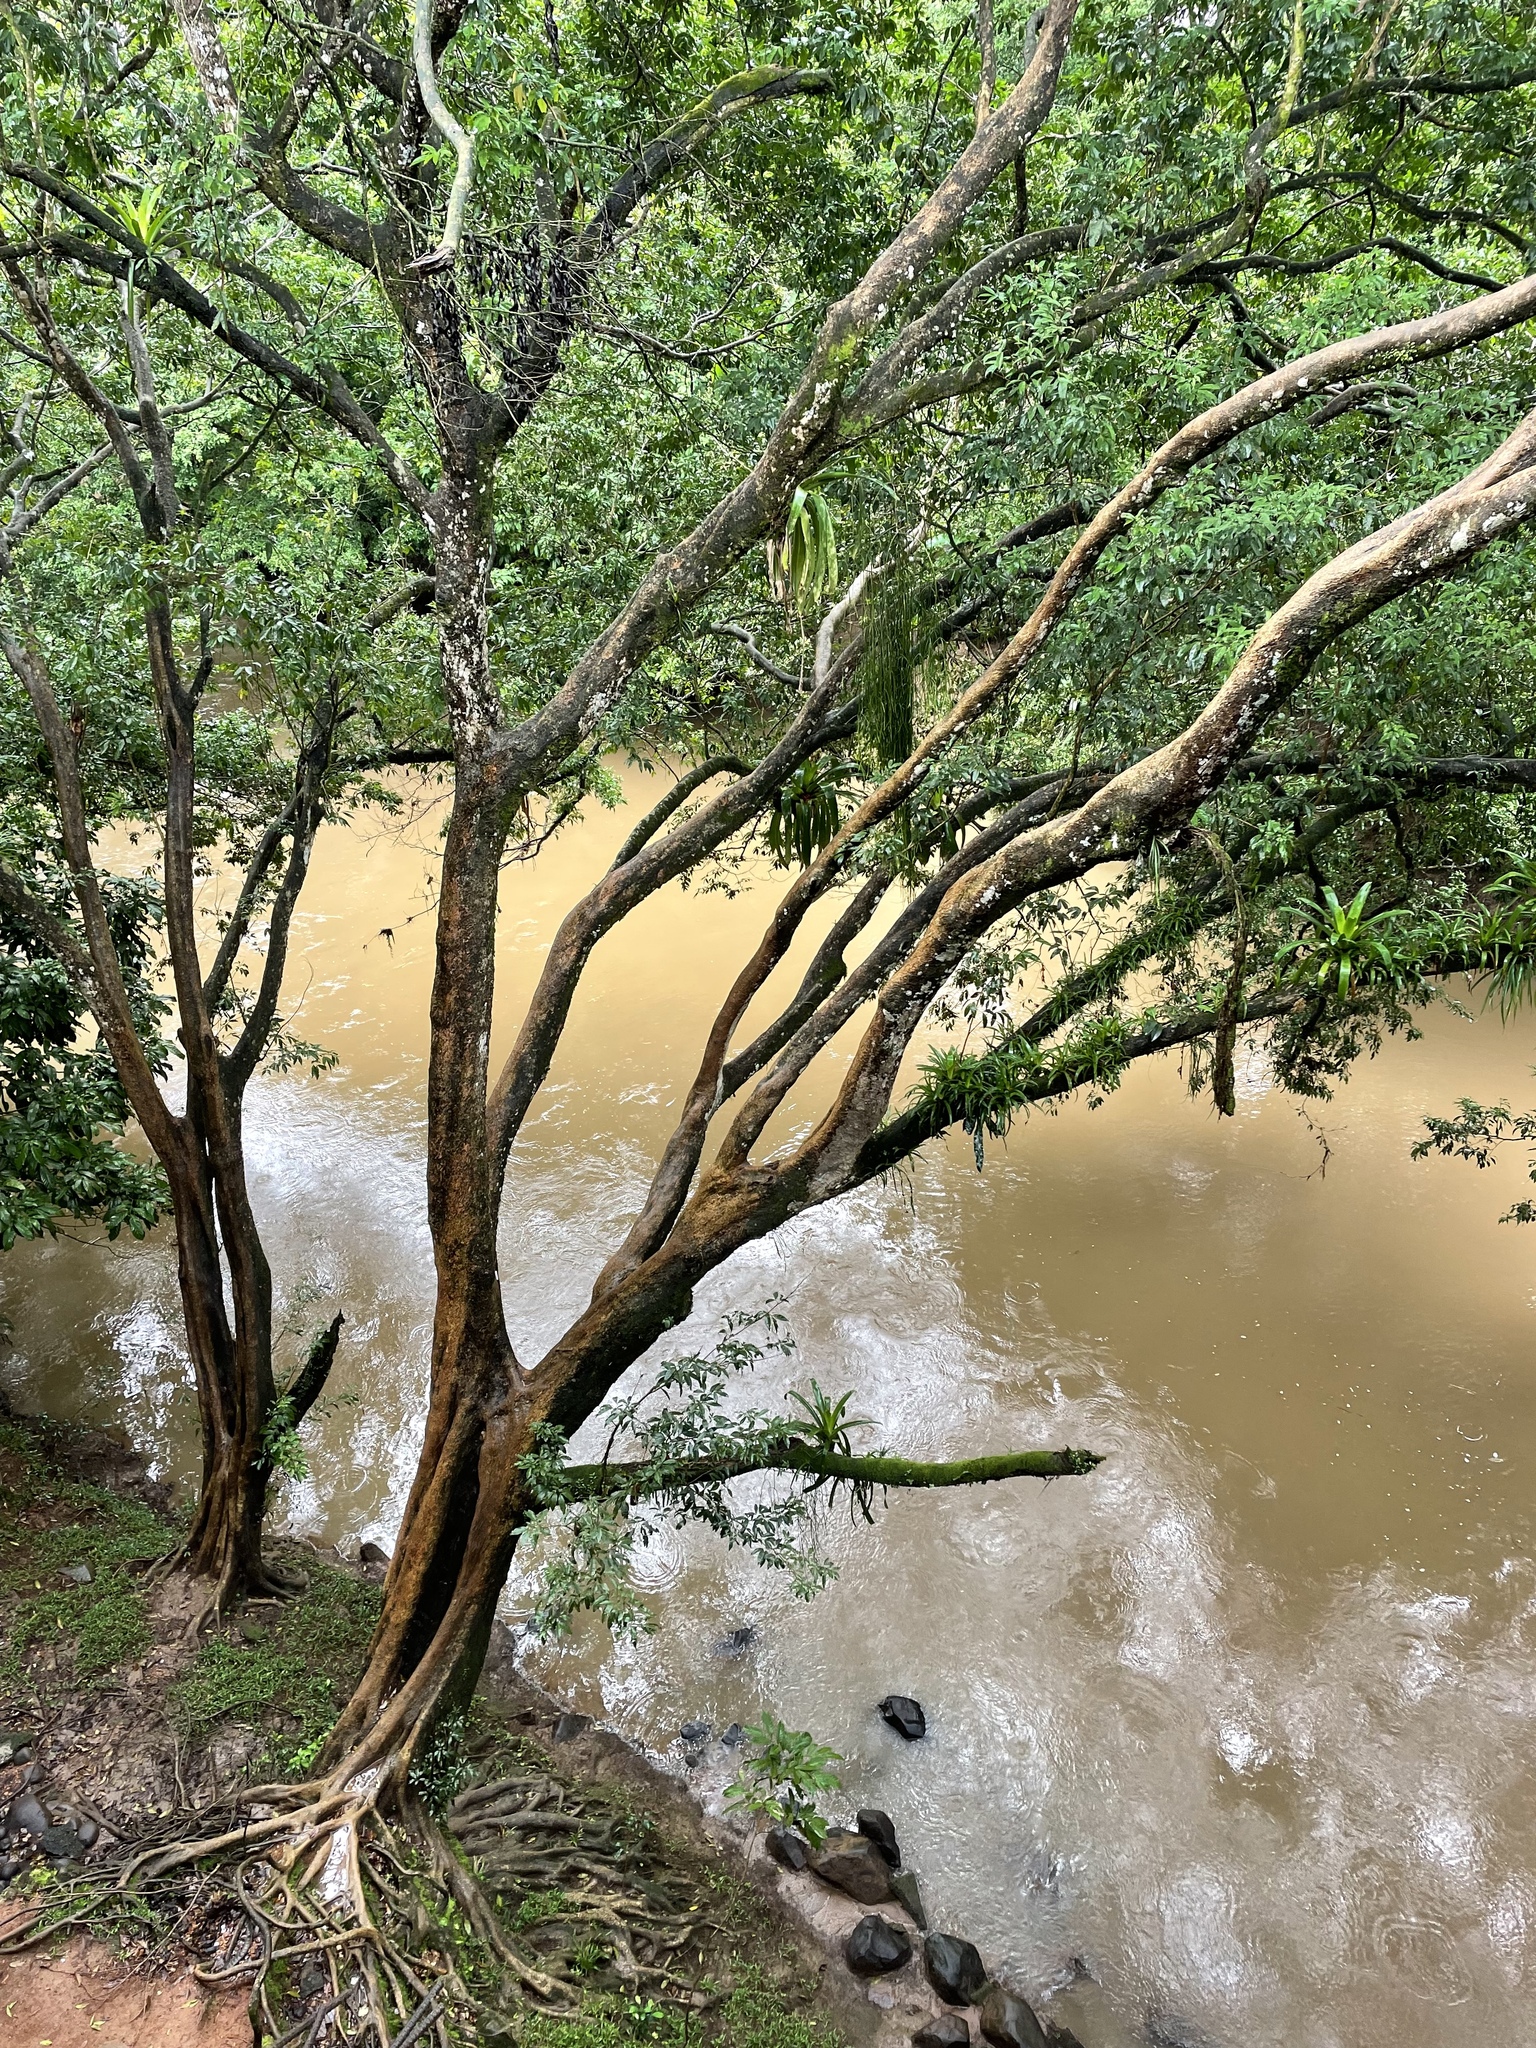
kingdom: Animalia
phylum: Chordata
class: Squamata
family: Iguanidae
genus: Iguana
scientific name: Iguana iguana
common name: Green iguana
